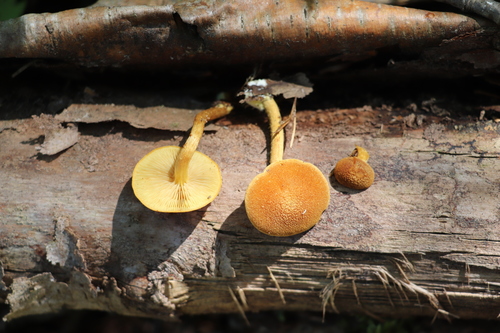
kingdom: Fungi
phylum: Basidiomycota
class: Agaricomycetes
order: Agaricales
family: Tubariaceae
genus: Flammulaster
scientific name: Flammulaster limulatus
